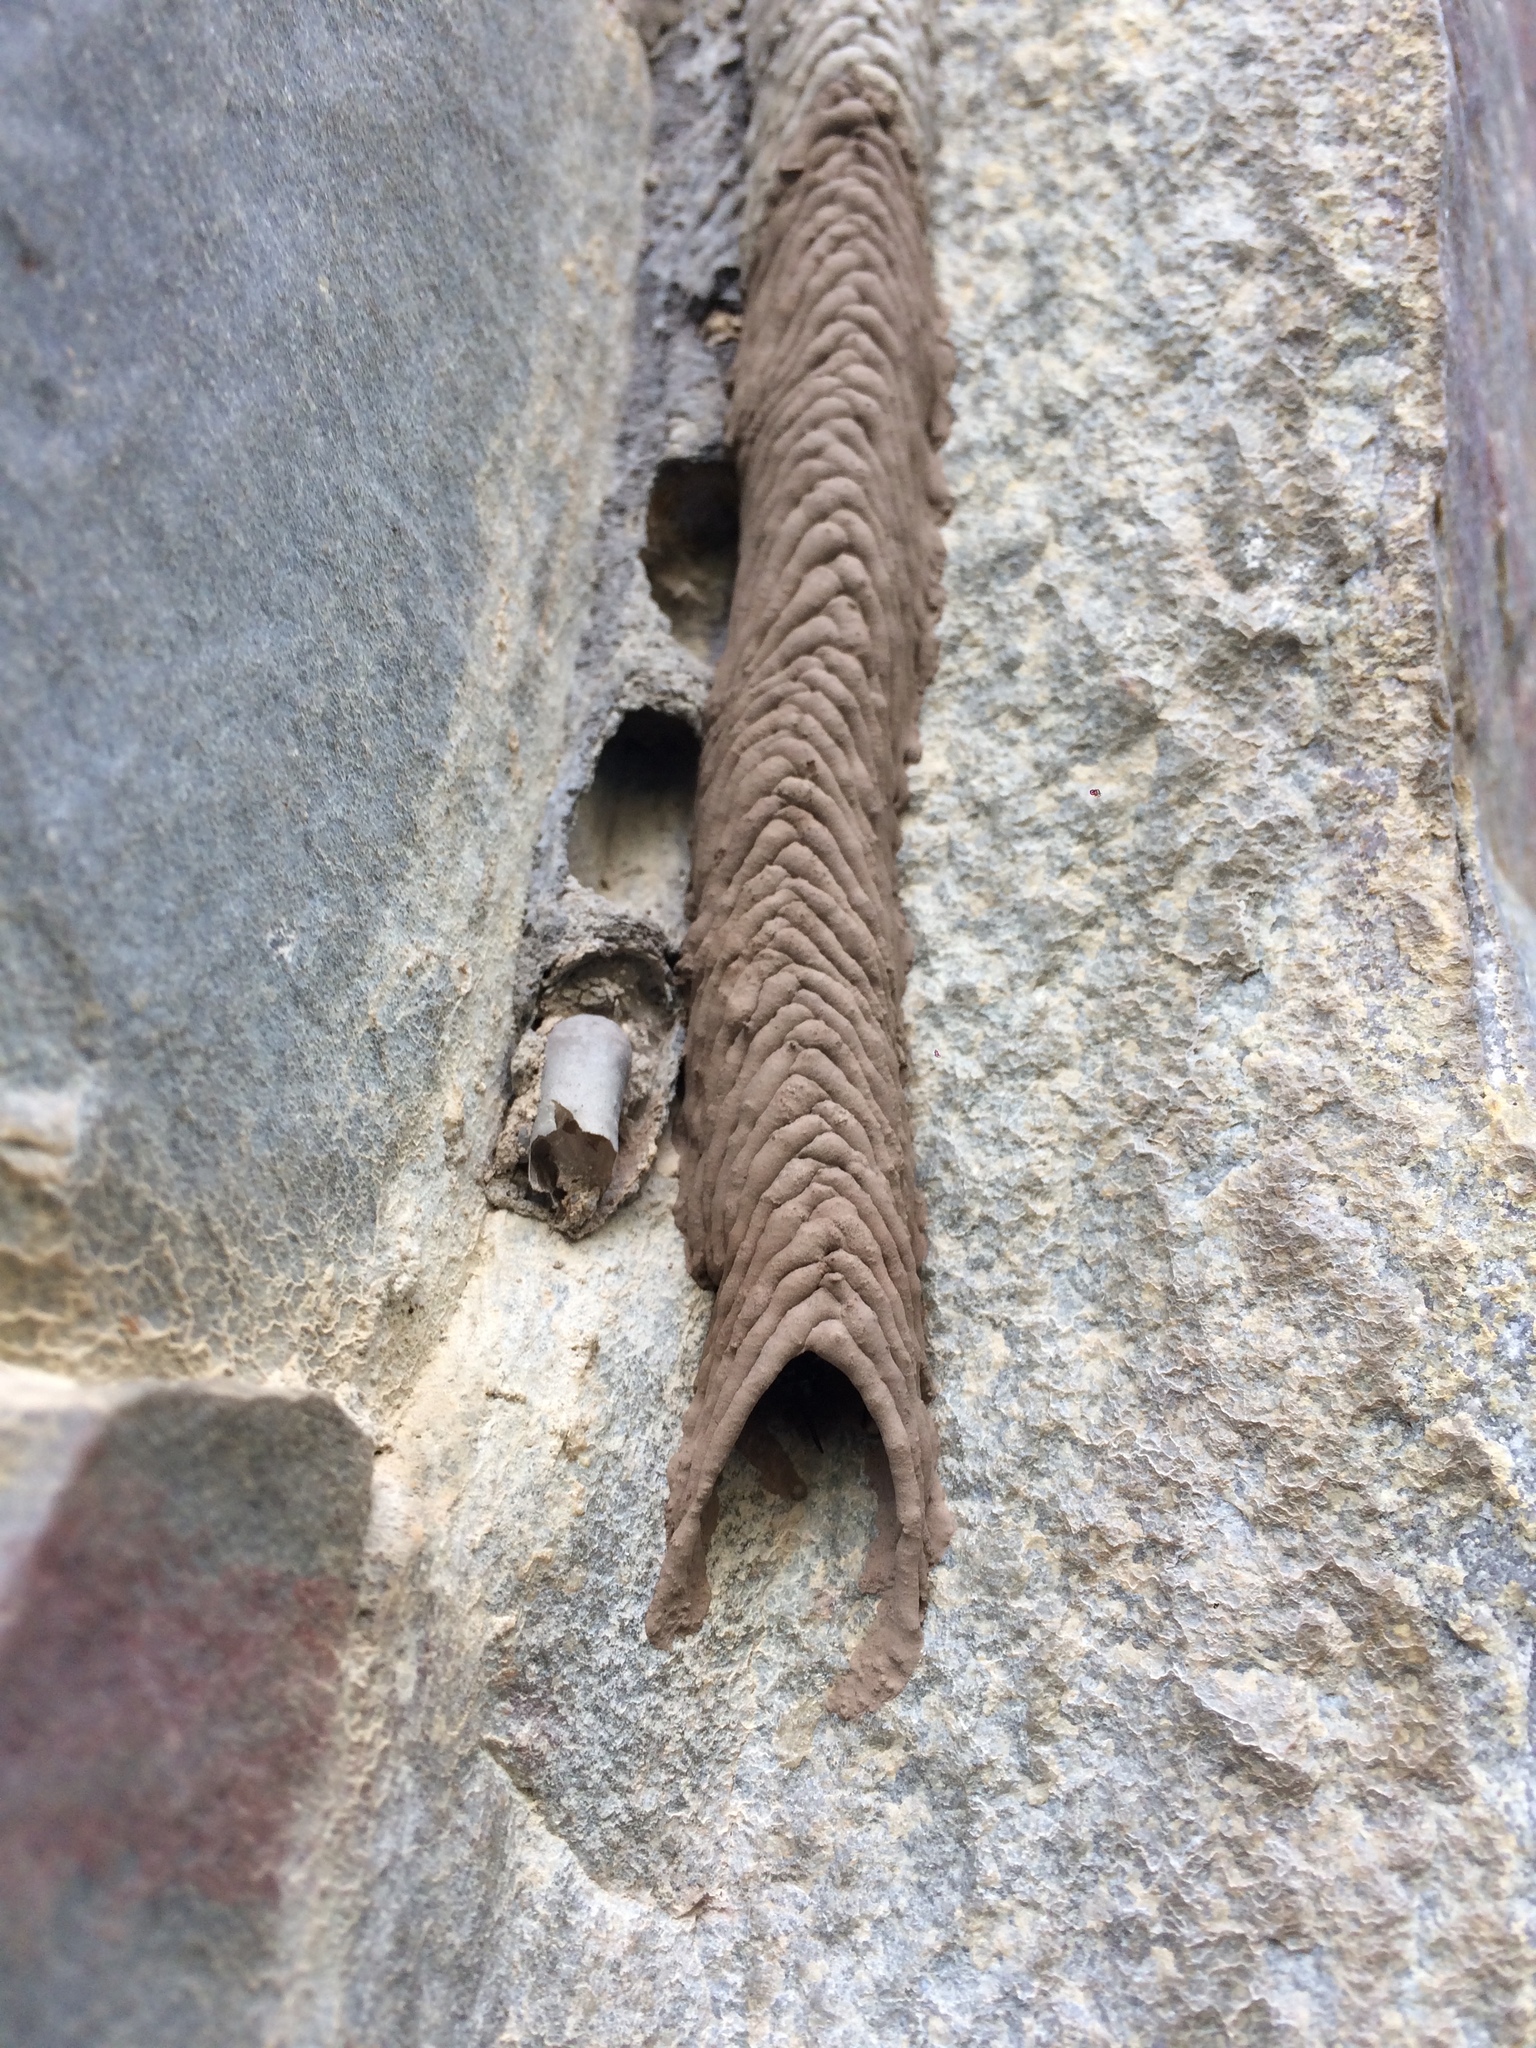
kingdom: Animalia
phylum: Arthropoda
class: Insecta
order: Hymenoptera
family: Crabronidae
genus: Trypoxylon
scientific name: Trypoxylon albitarse
